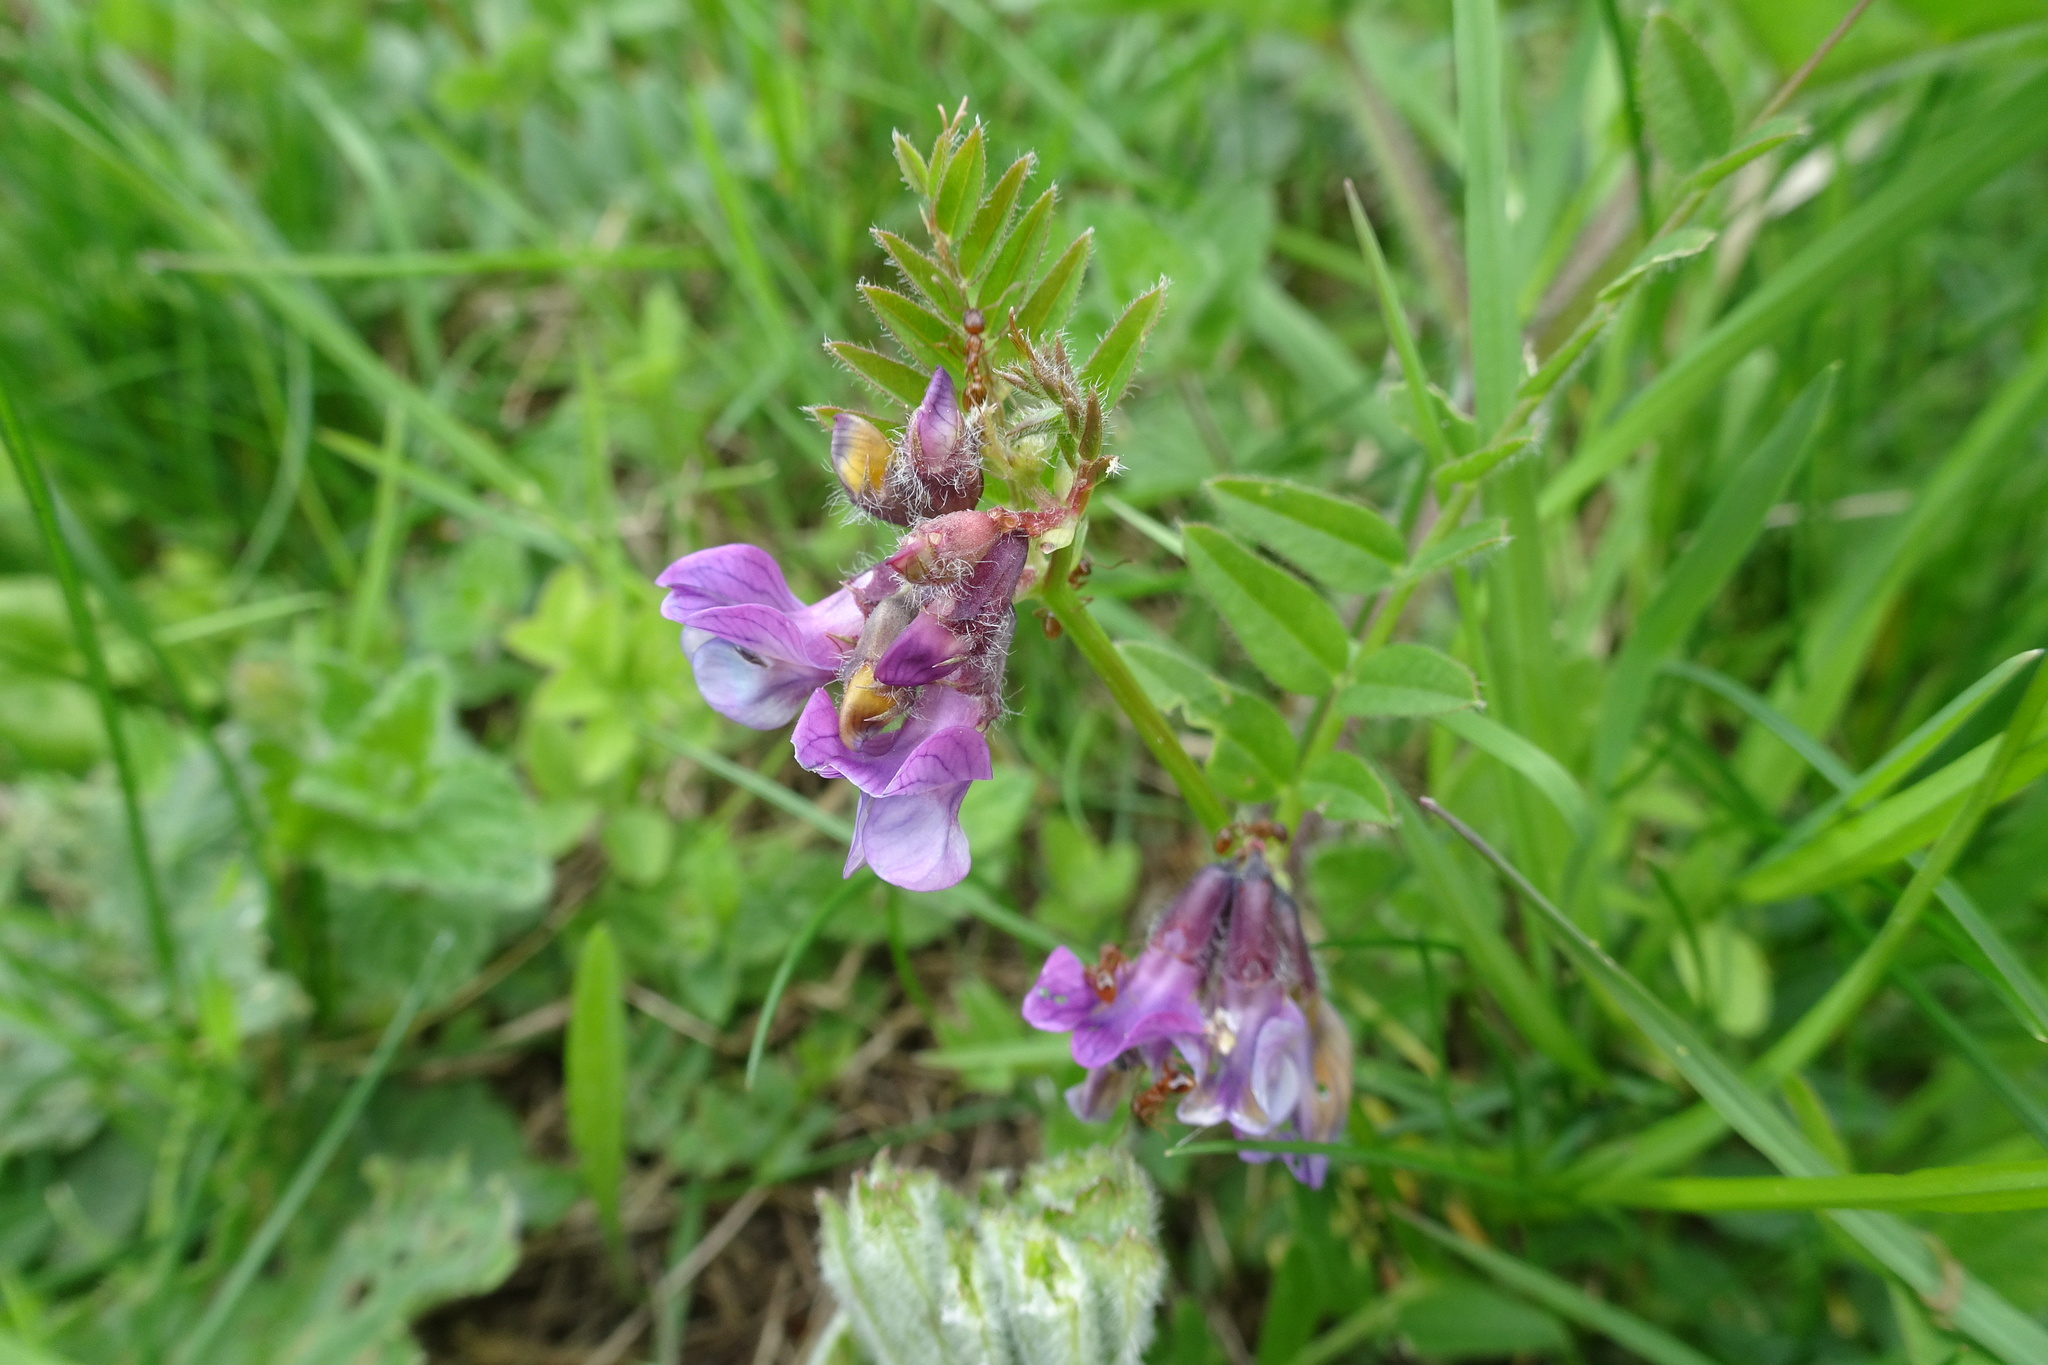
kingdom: Plantae
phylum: Tracheophyta
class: Magnoliopsida
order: Fabales
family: Fabaceae
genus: Vicia
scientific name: Vicia sepium
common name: Bush vetch
